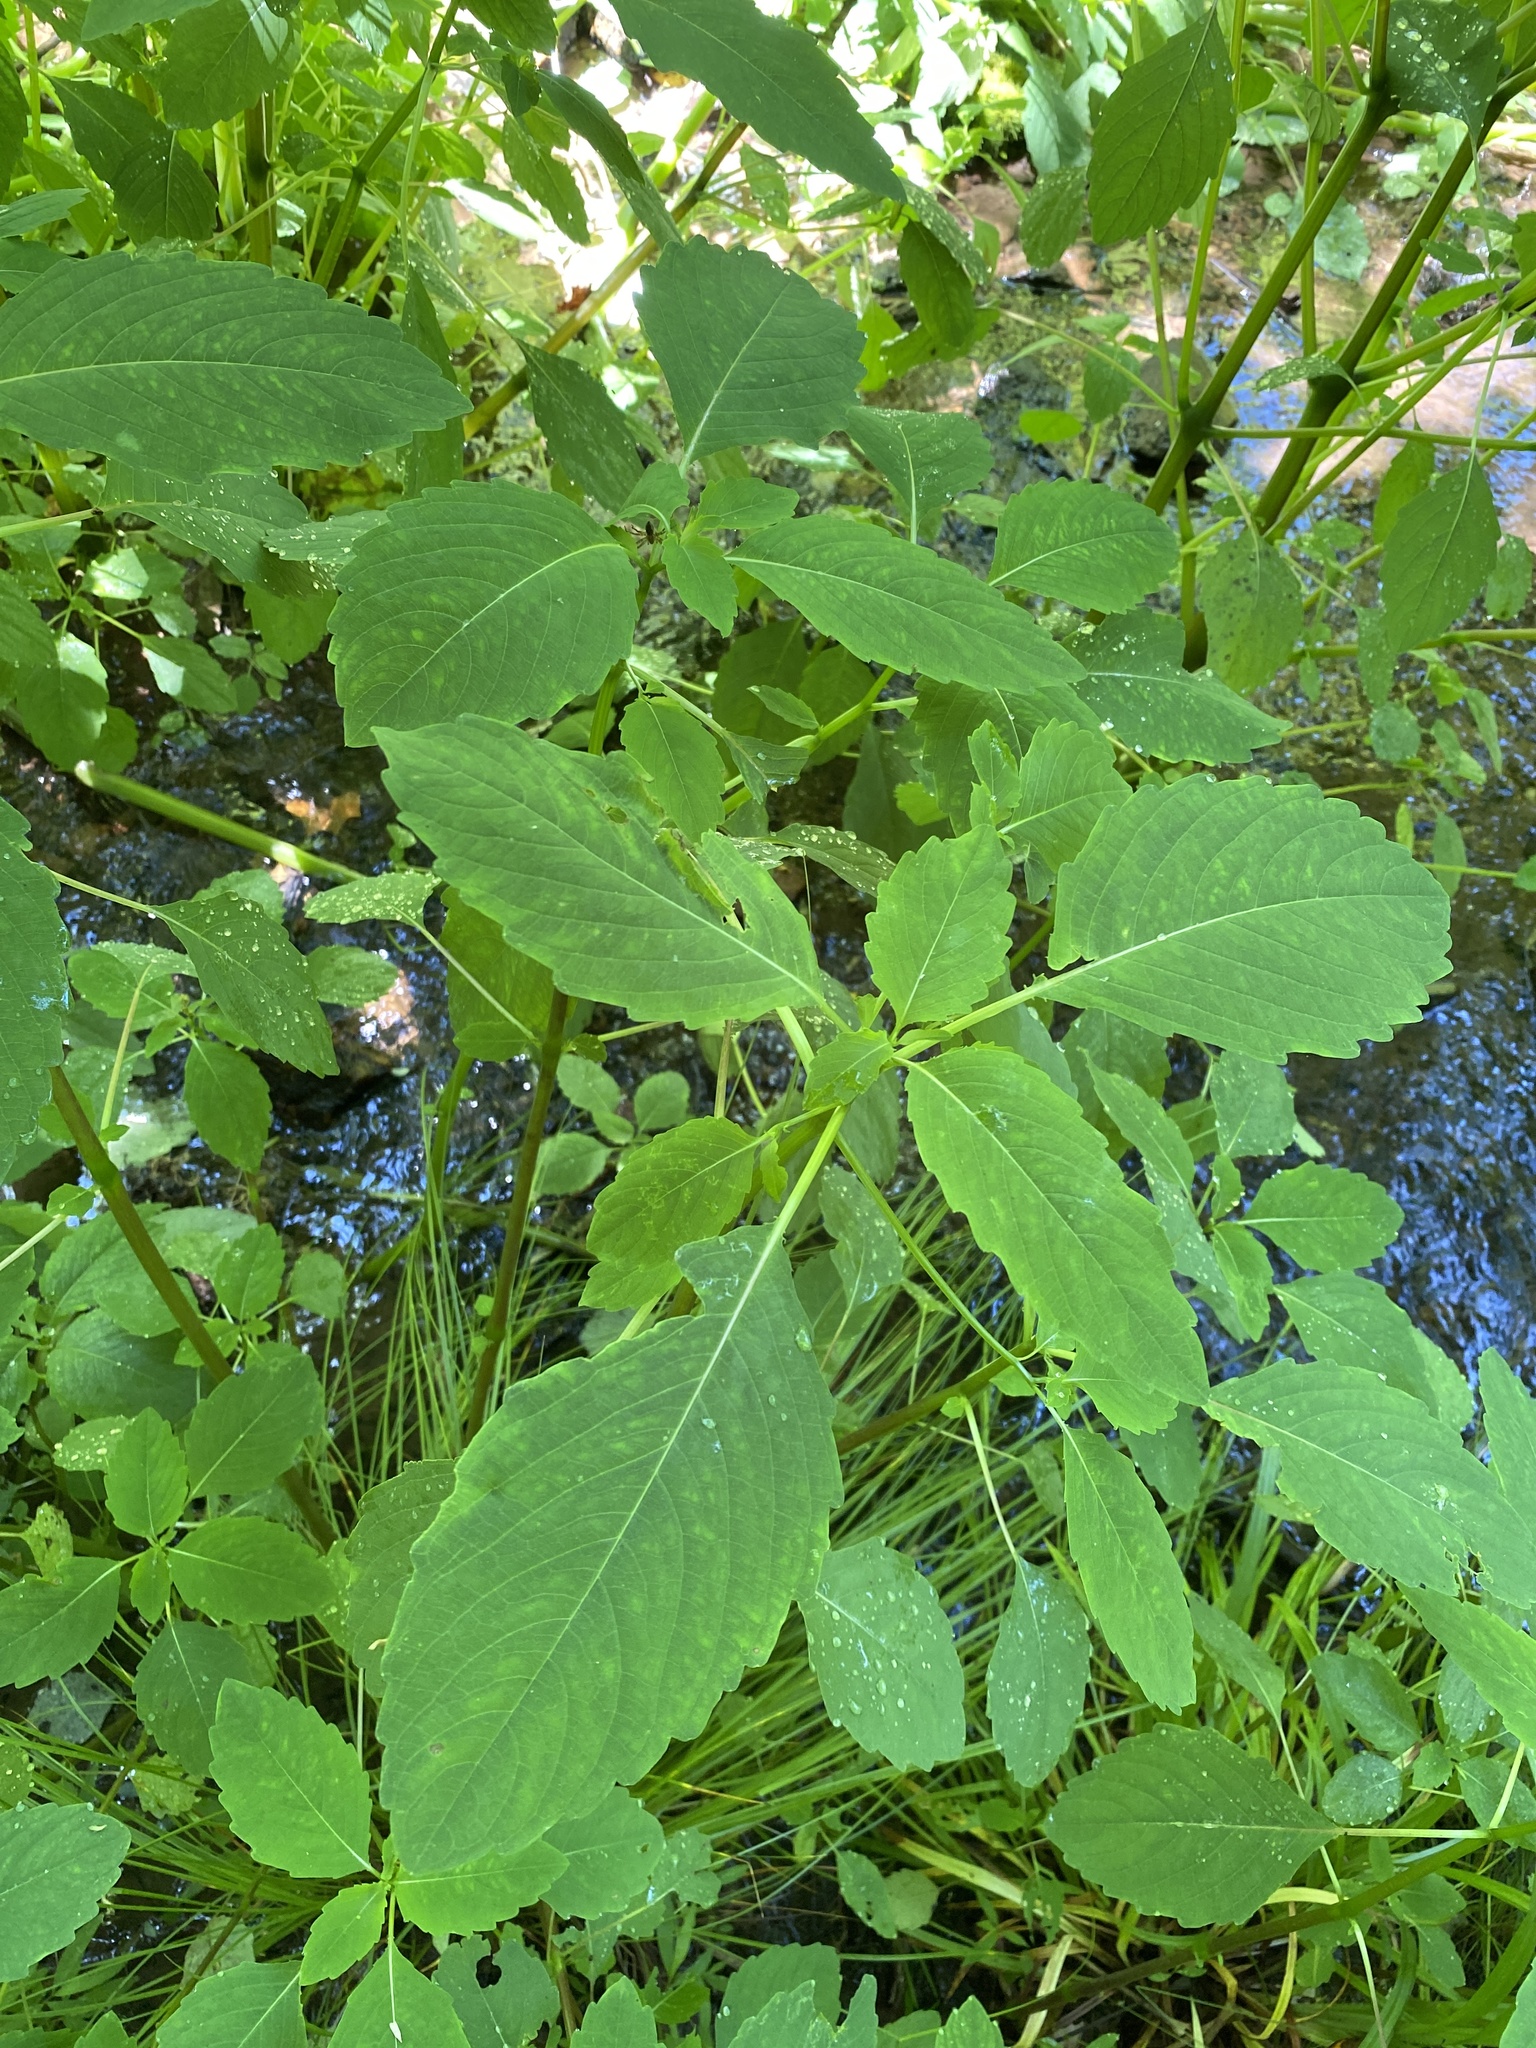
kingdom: Plantae
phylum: Tracheophyta
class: Magnoliopsida
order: Ericales
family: Balsaminaceae
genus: Impatiens
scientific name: Impatiens capensis
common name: Orange balsam
